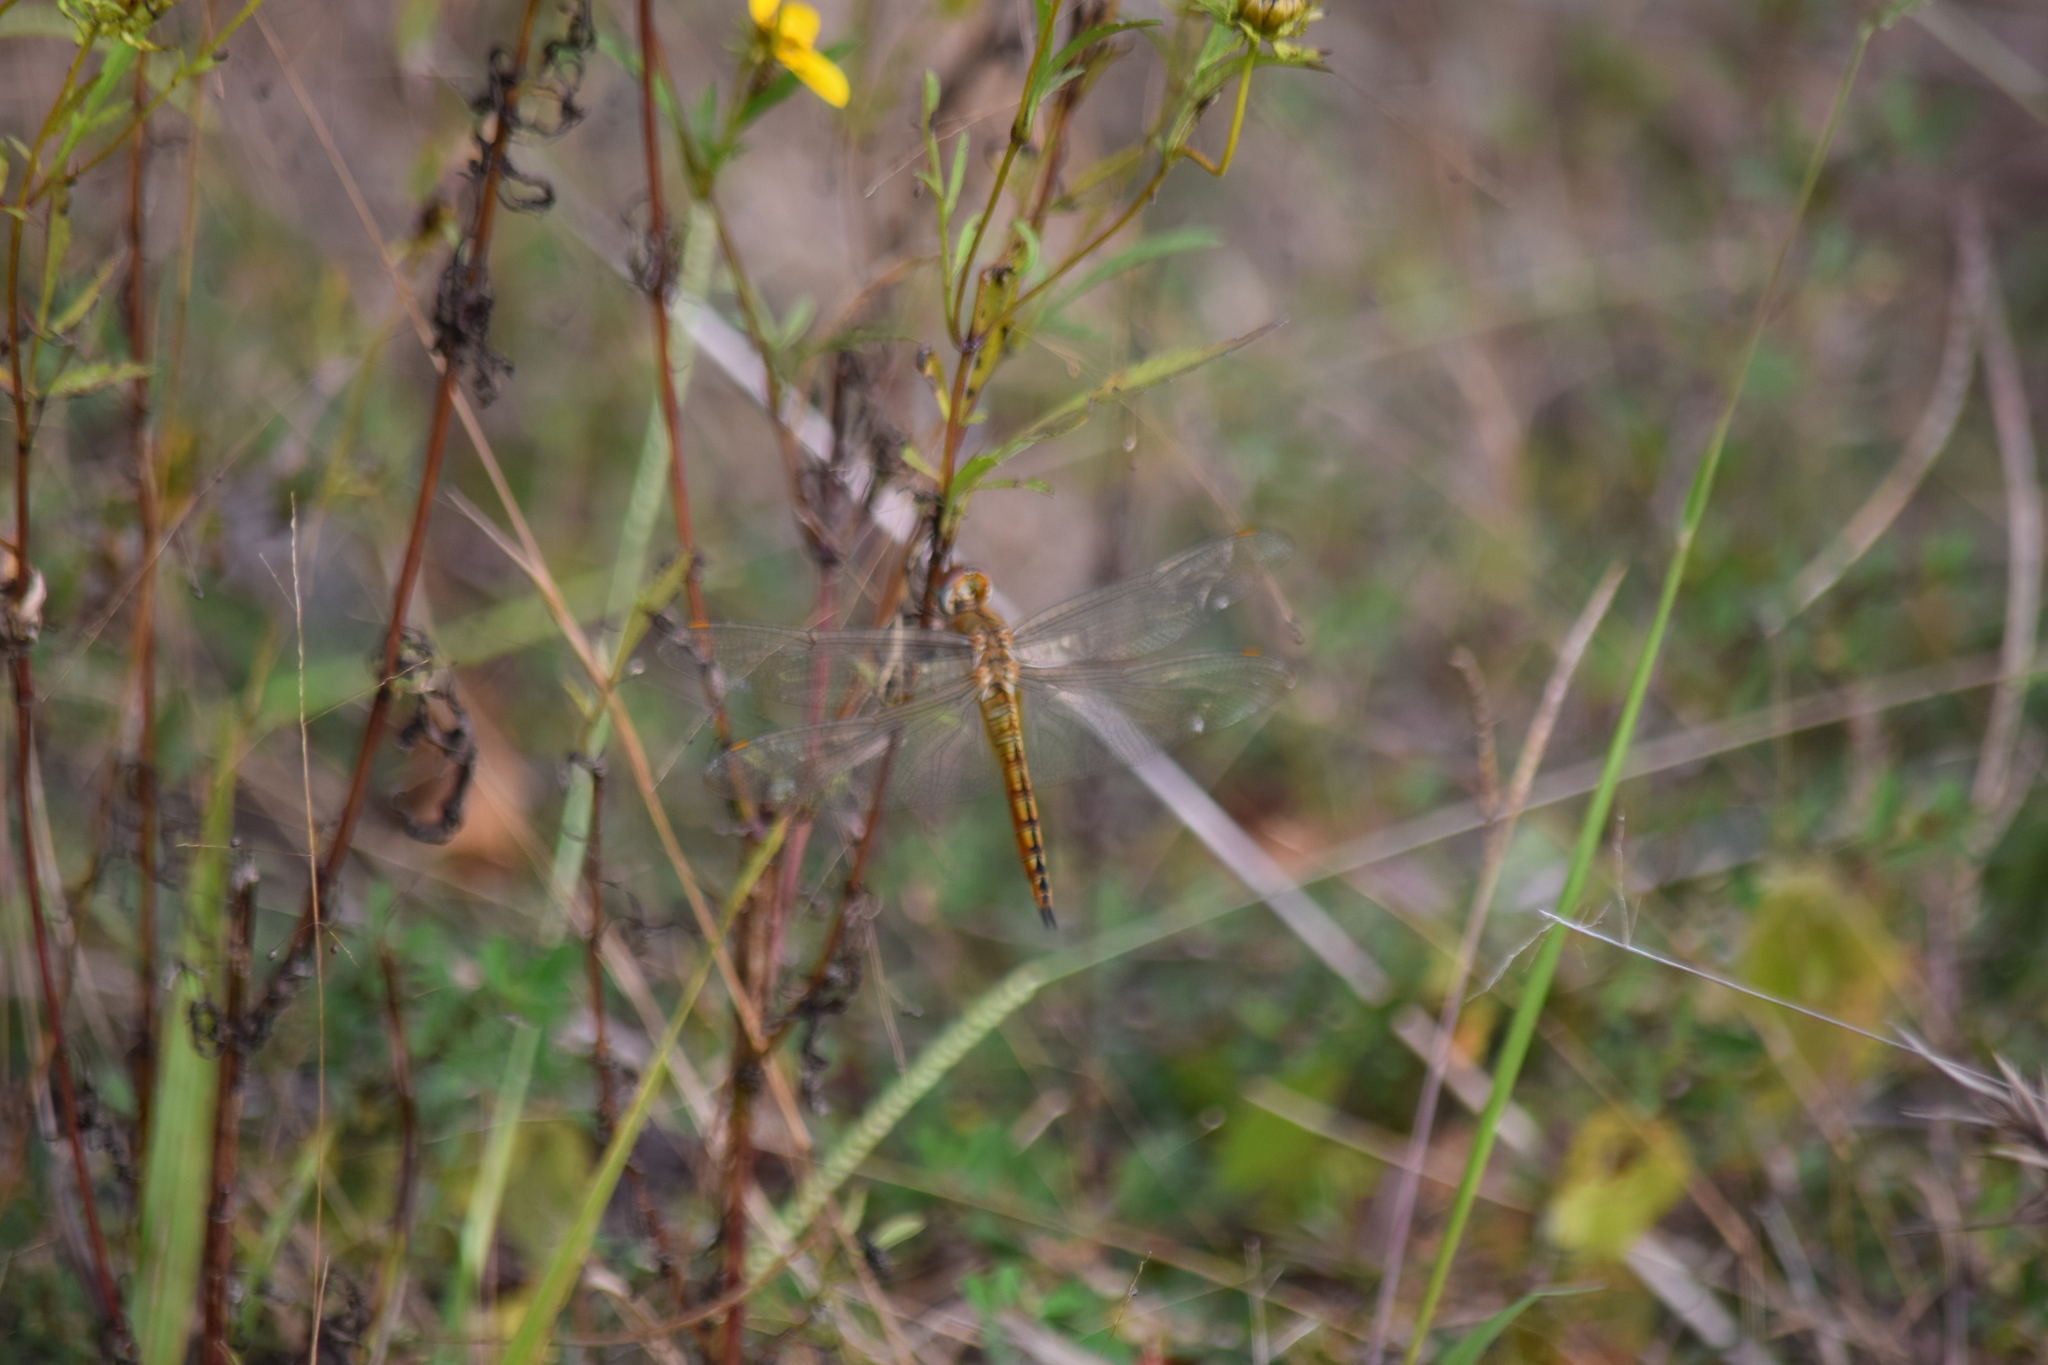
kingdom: Animalia
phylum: Arthropoda
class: Insecta
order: Odonata
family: Libellulidae
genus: Pantala
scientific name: Pantala flavescens
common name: Wandering glider
